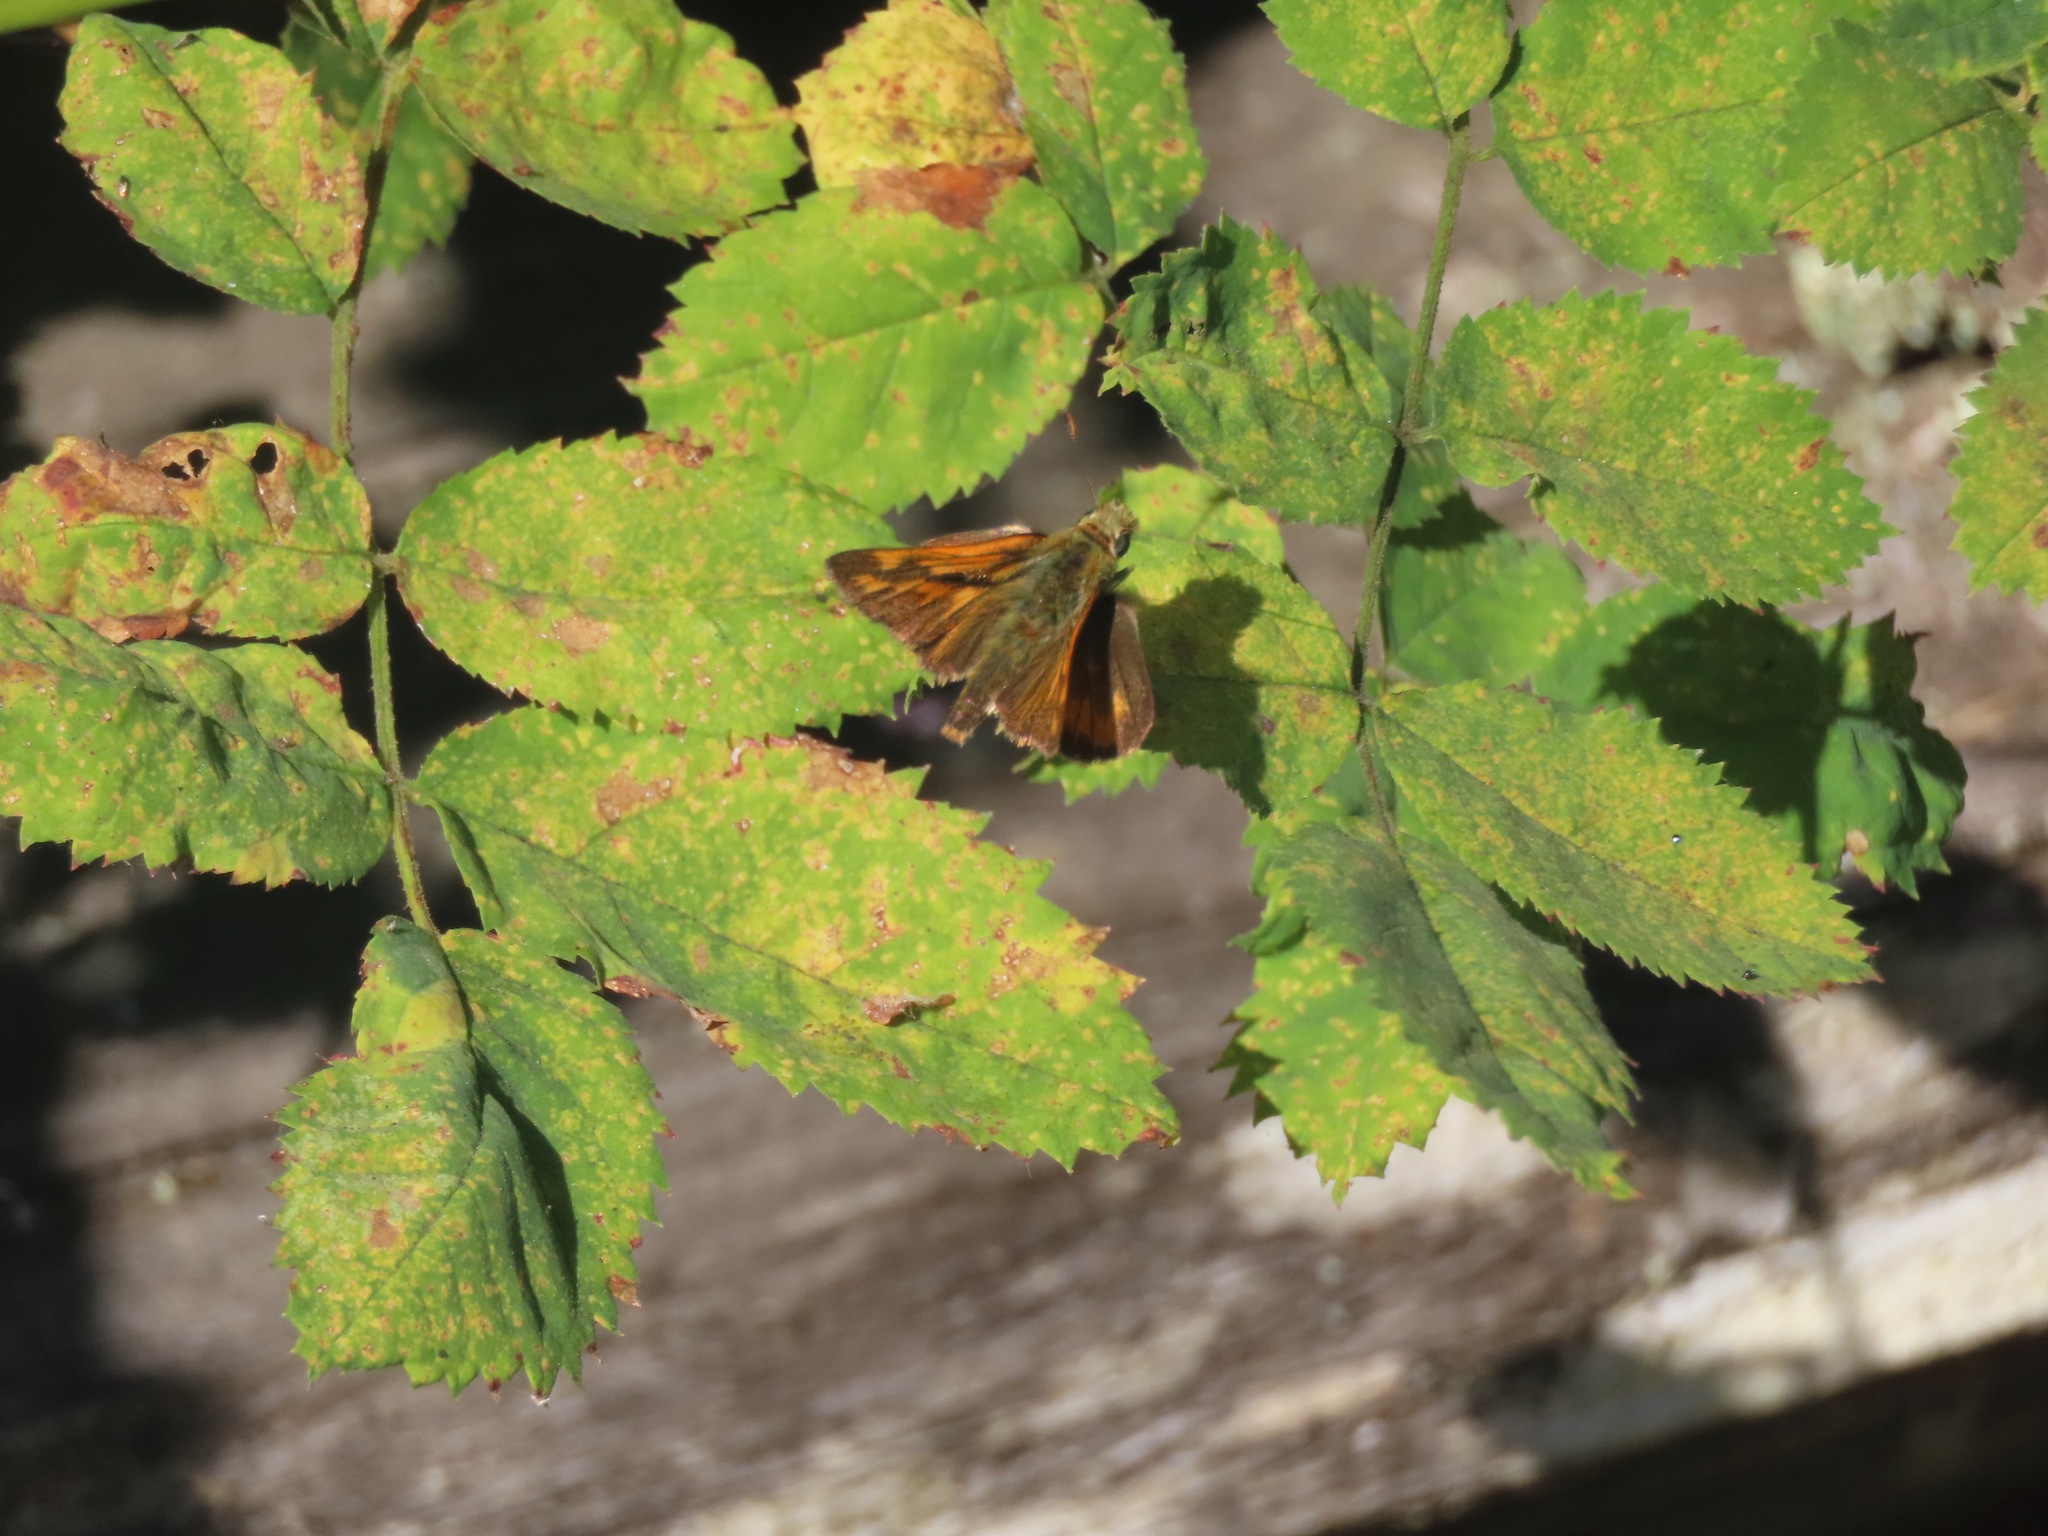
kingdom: Animalia
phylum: Arthropoda
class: Insecta
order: Lepidoptera
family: Hesperiidae
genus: Ochlodes
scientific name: Ochlodes sylvanoides
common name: Woodland skipper
